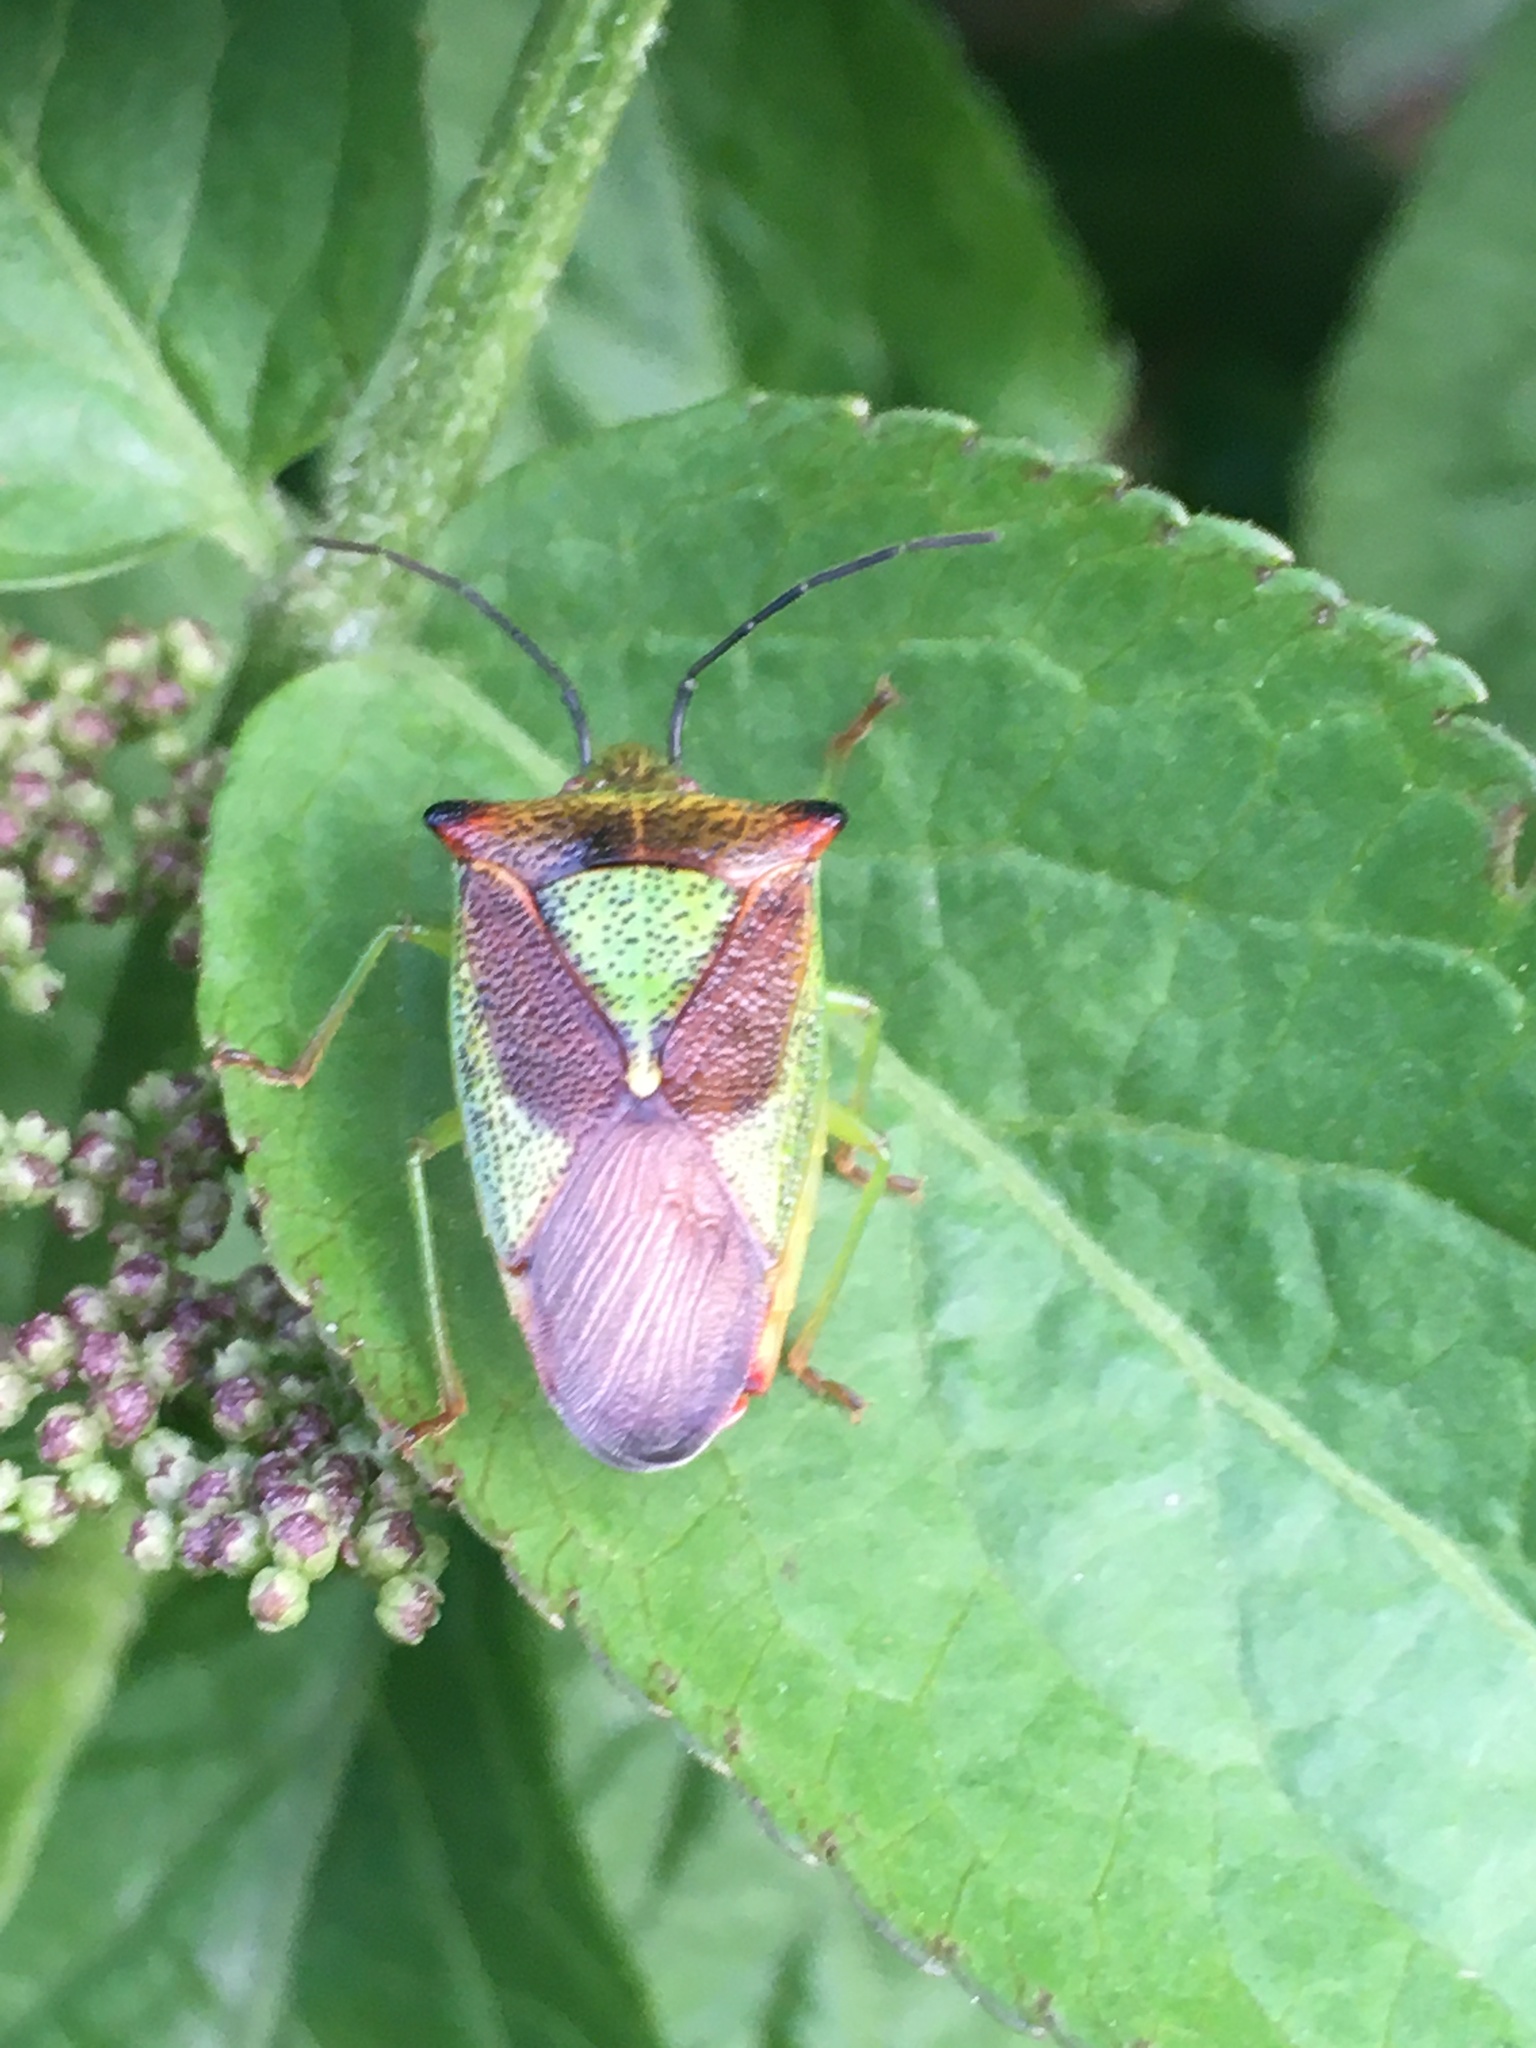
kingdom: Animalia
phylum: Arthropoda
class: Insecta
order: Hemiptera
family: Acanthosomatidae
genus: Acanthosoma
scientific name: Acanthosoma haemorrhoidale
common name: Hawthorn shieldbug
